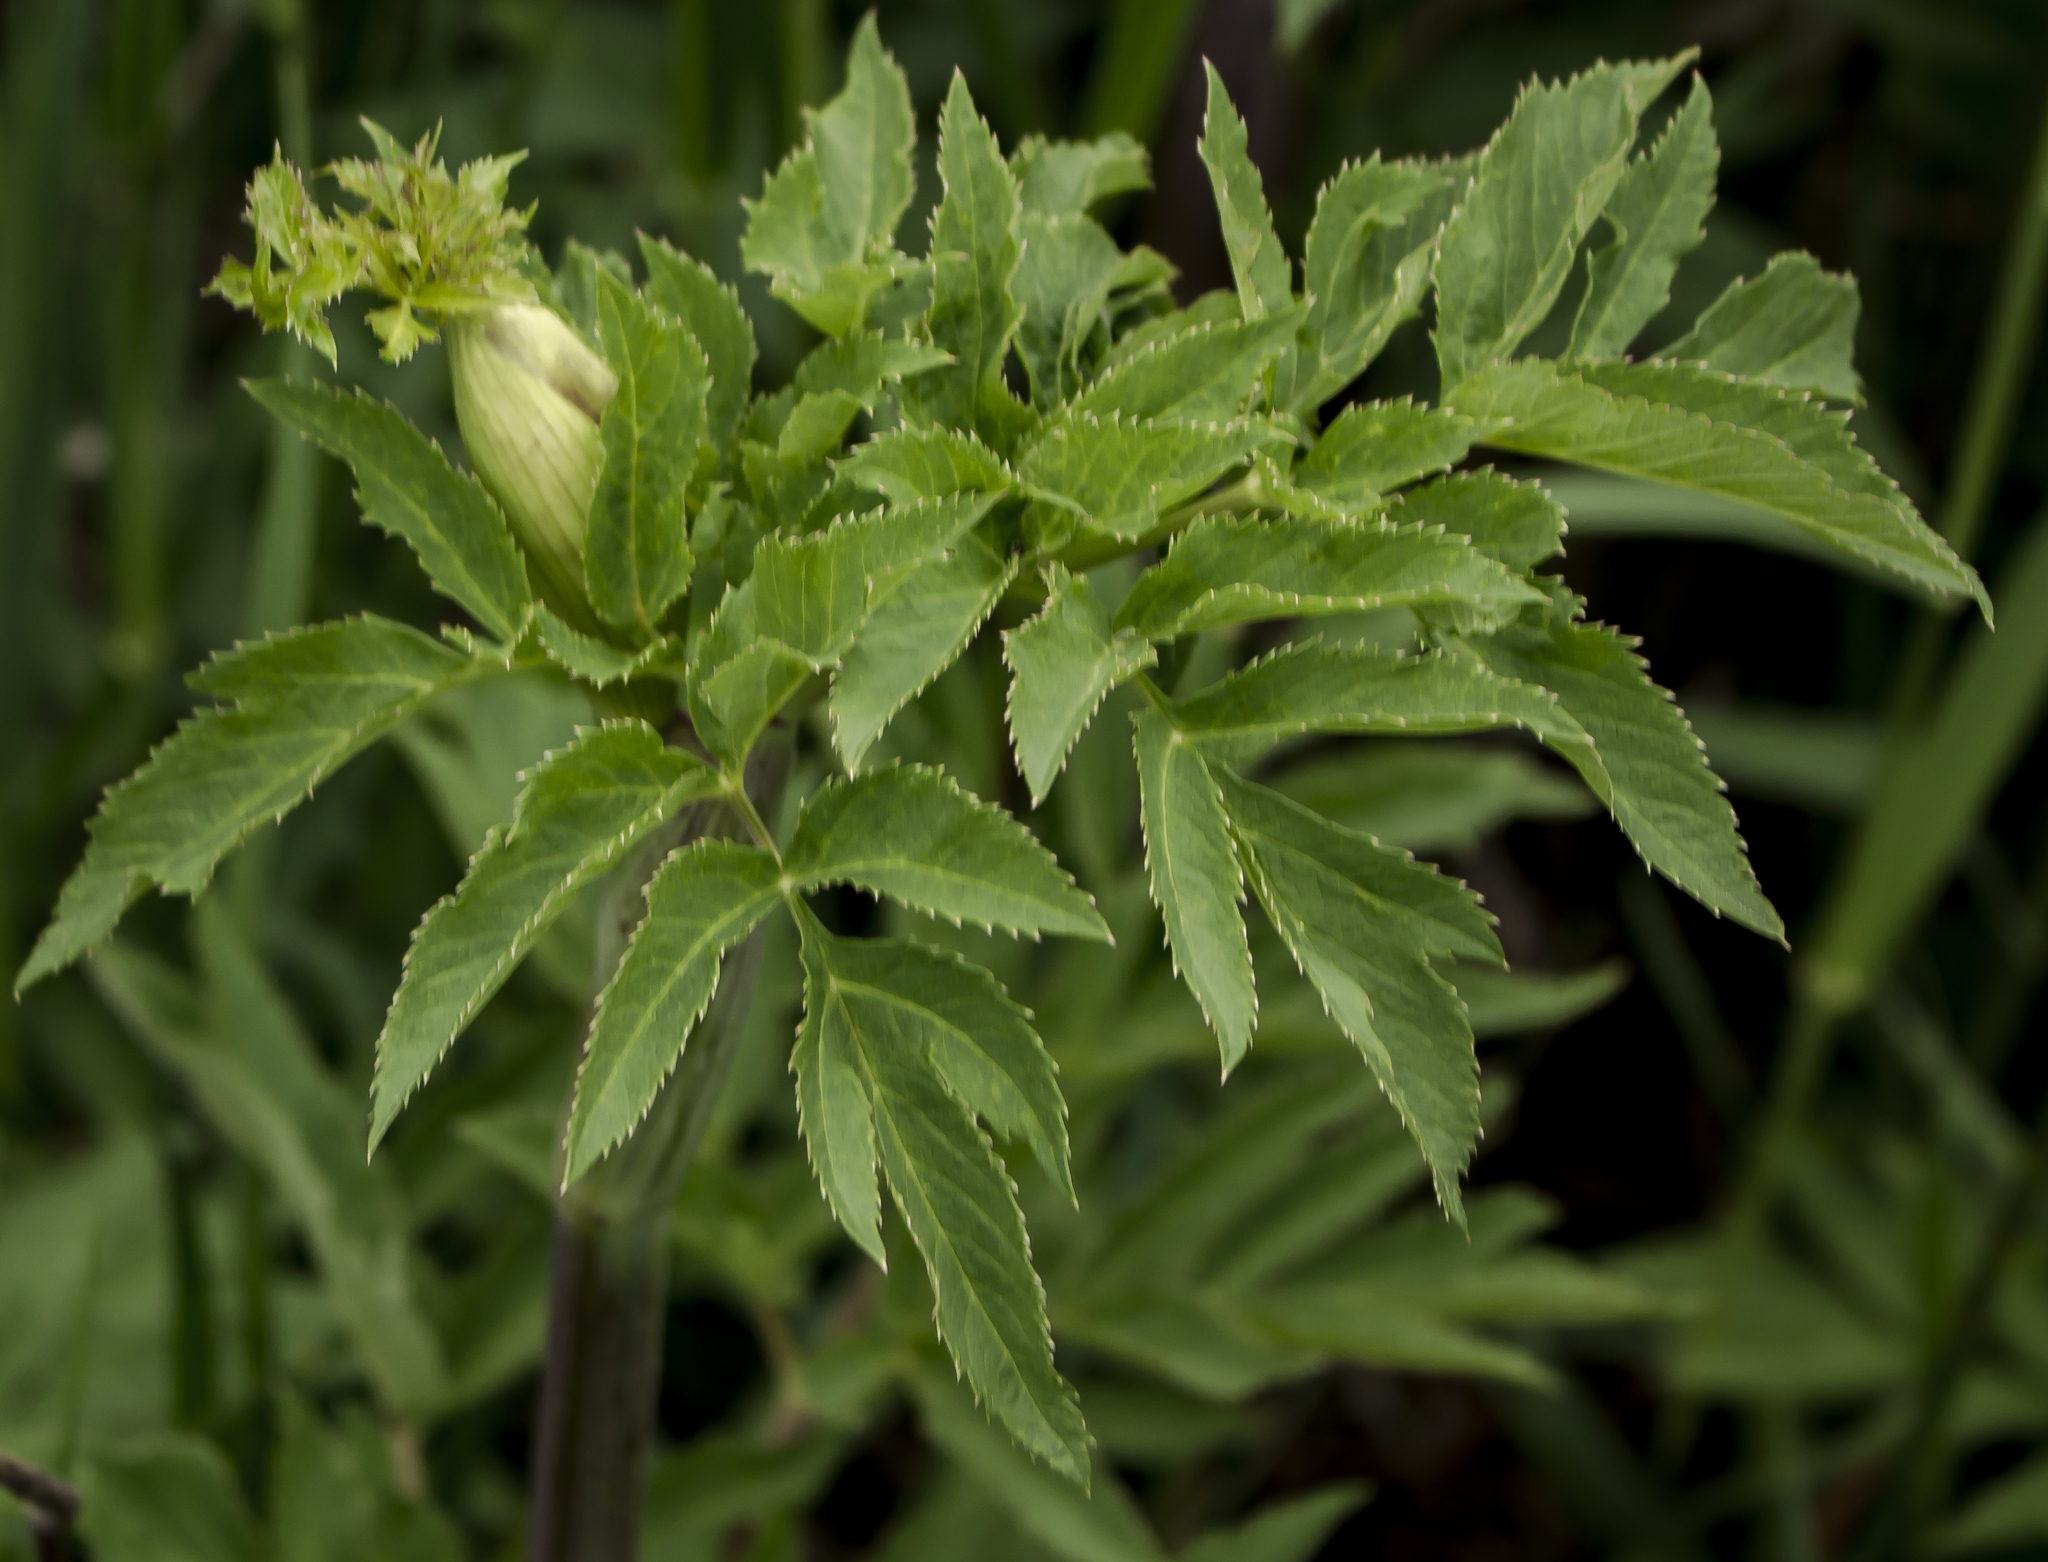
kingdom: Plantae
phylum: Tracheophyta
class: Magnoliopsida
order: Apiales
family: Apiaceae
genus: Angelica
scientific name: Angelica atropurpurea
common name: Great angelica
